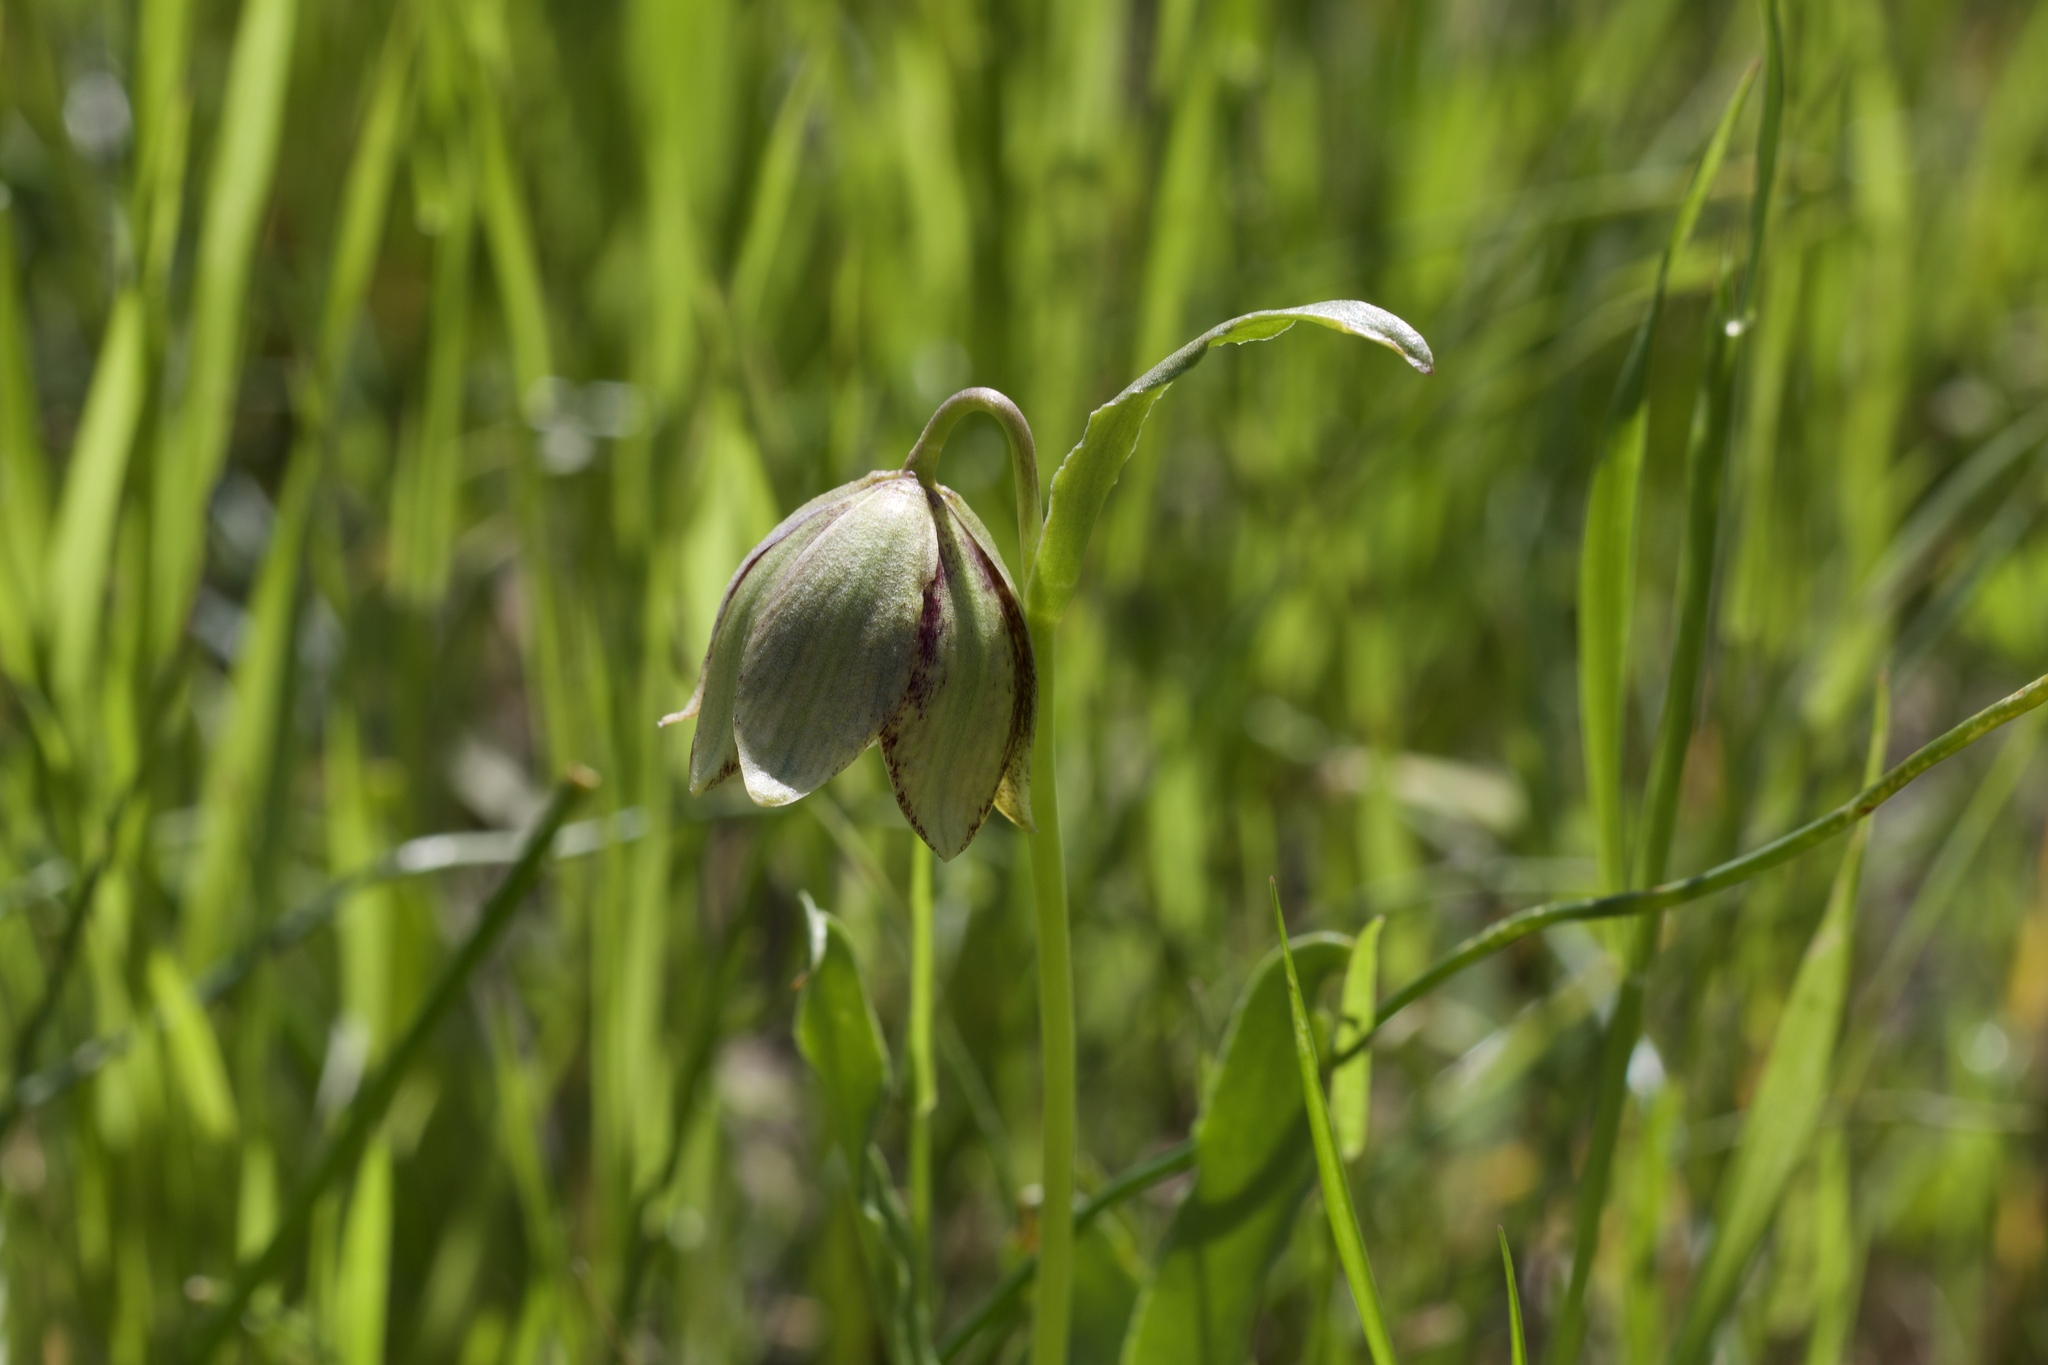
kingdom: Plantae
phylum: Tracheophyta
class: Liliopsida
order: Liliales
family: Liliaceae
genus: Fritillaria
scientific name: Fritillaria agrestis
